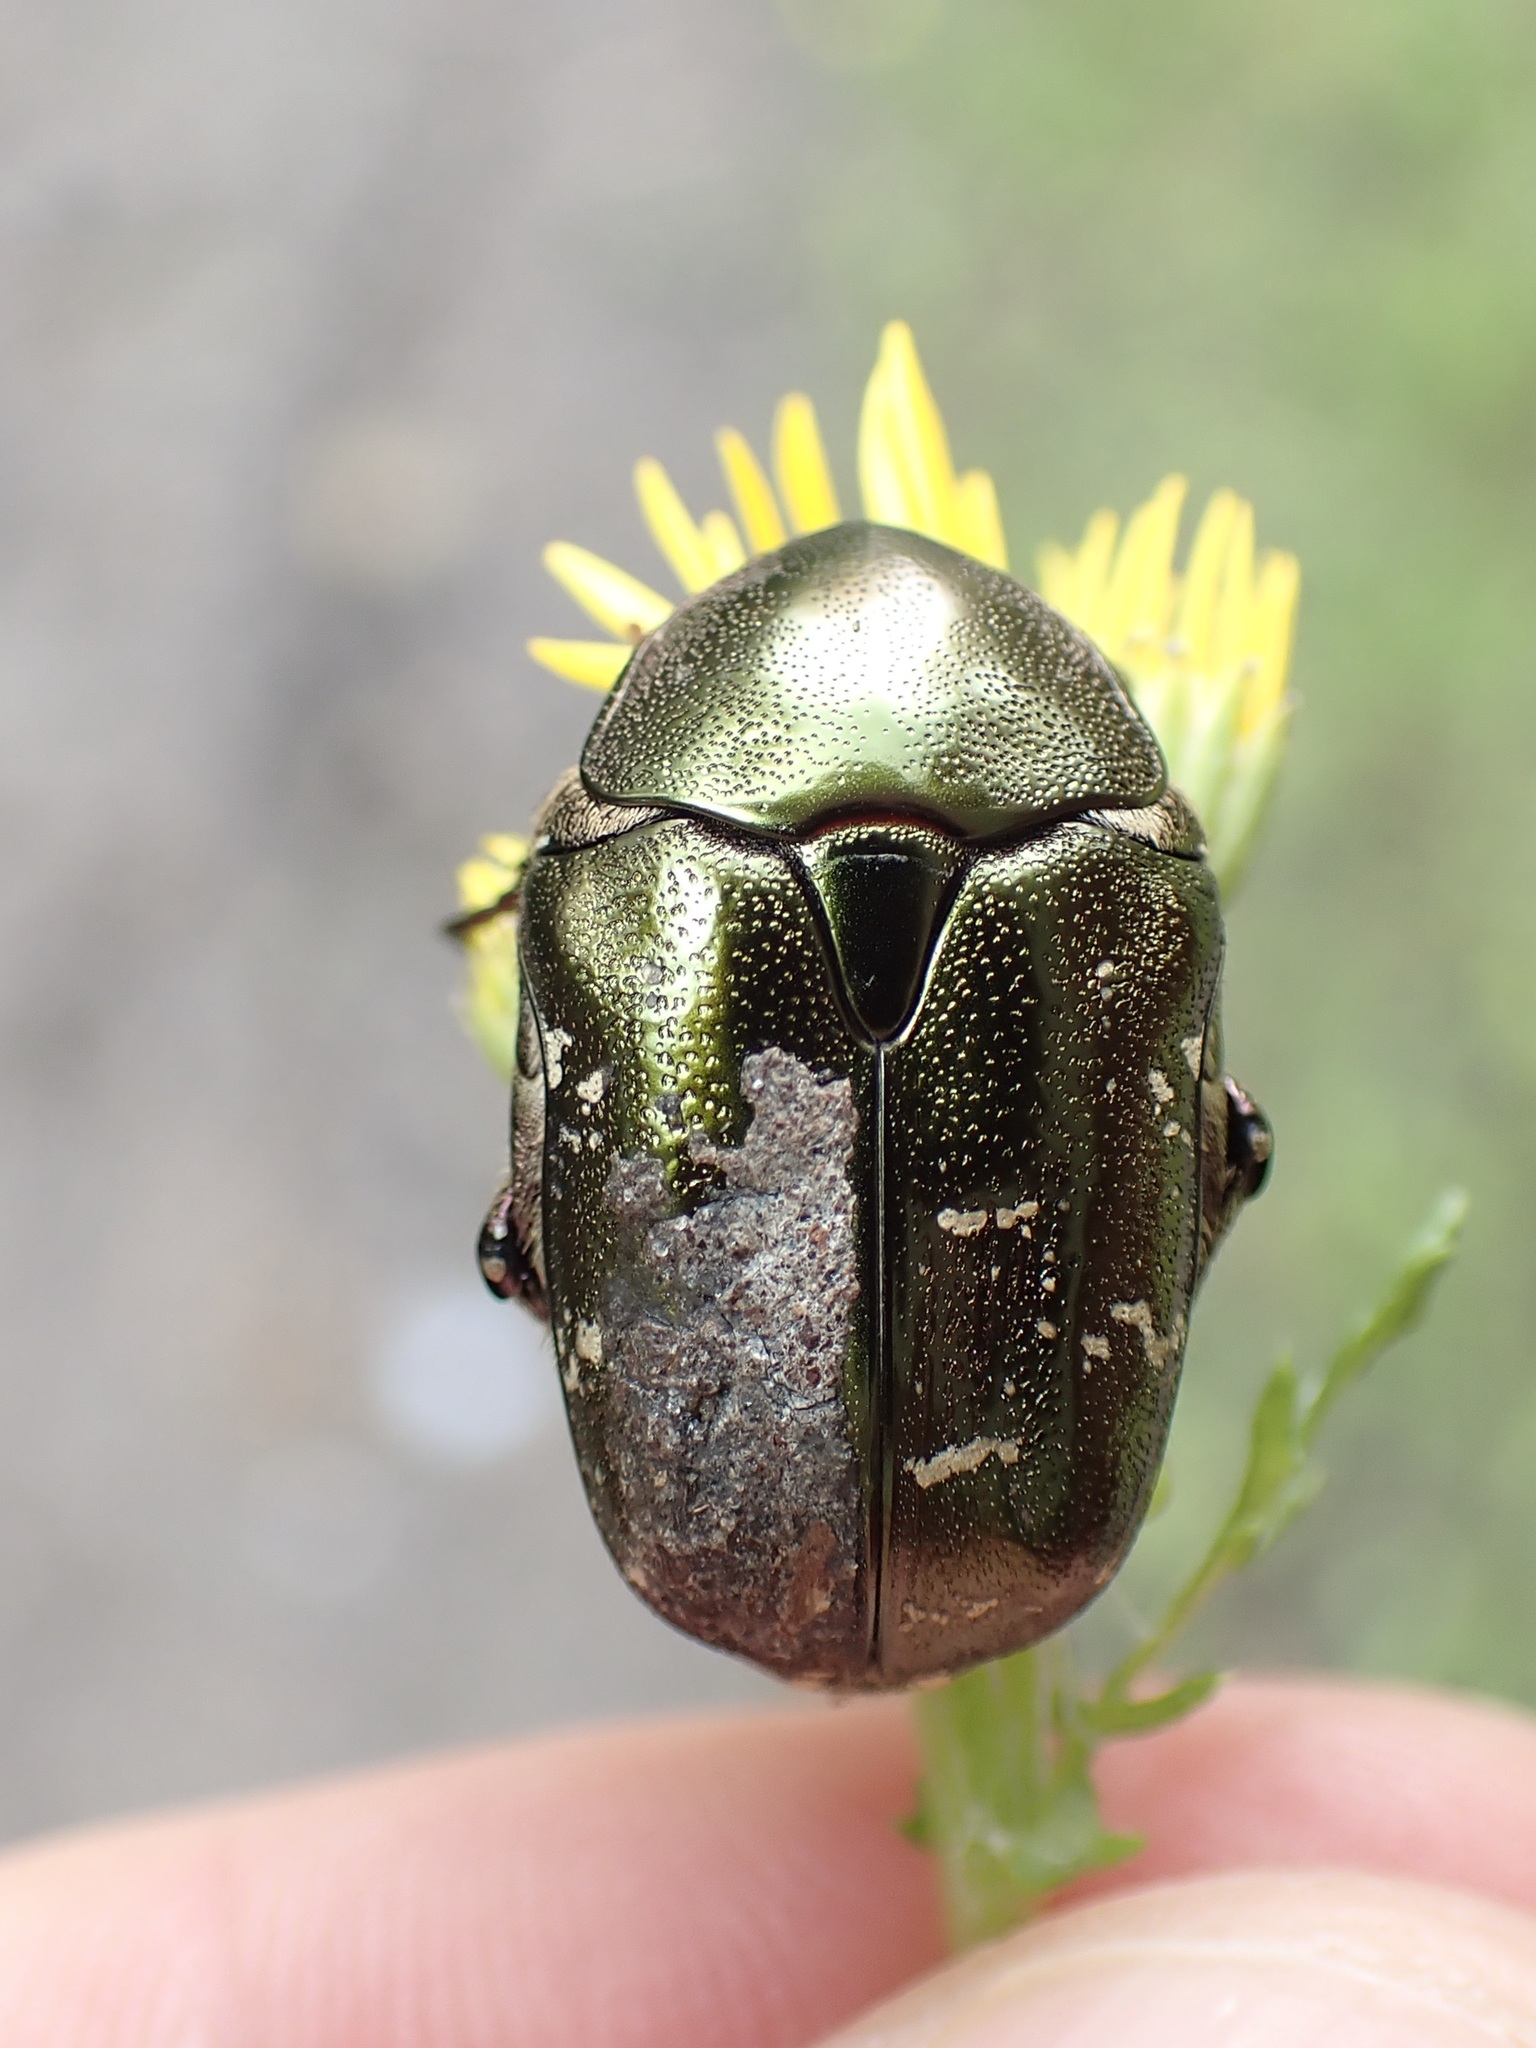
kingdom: Animalia
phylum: Arthropoda
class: Insecta
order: Coleoptera
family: Scarabaeidae
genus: Protaetia
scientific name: Protaetia cuprea
